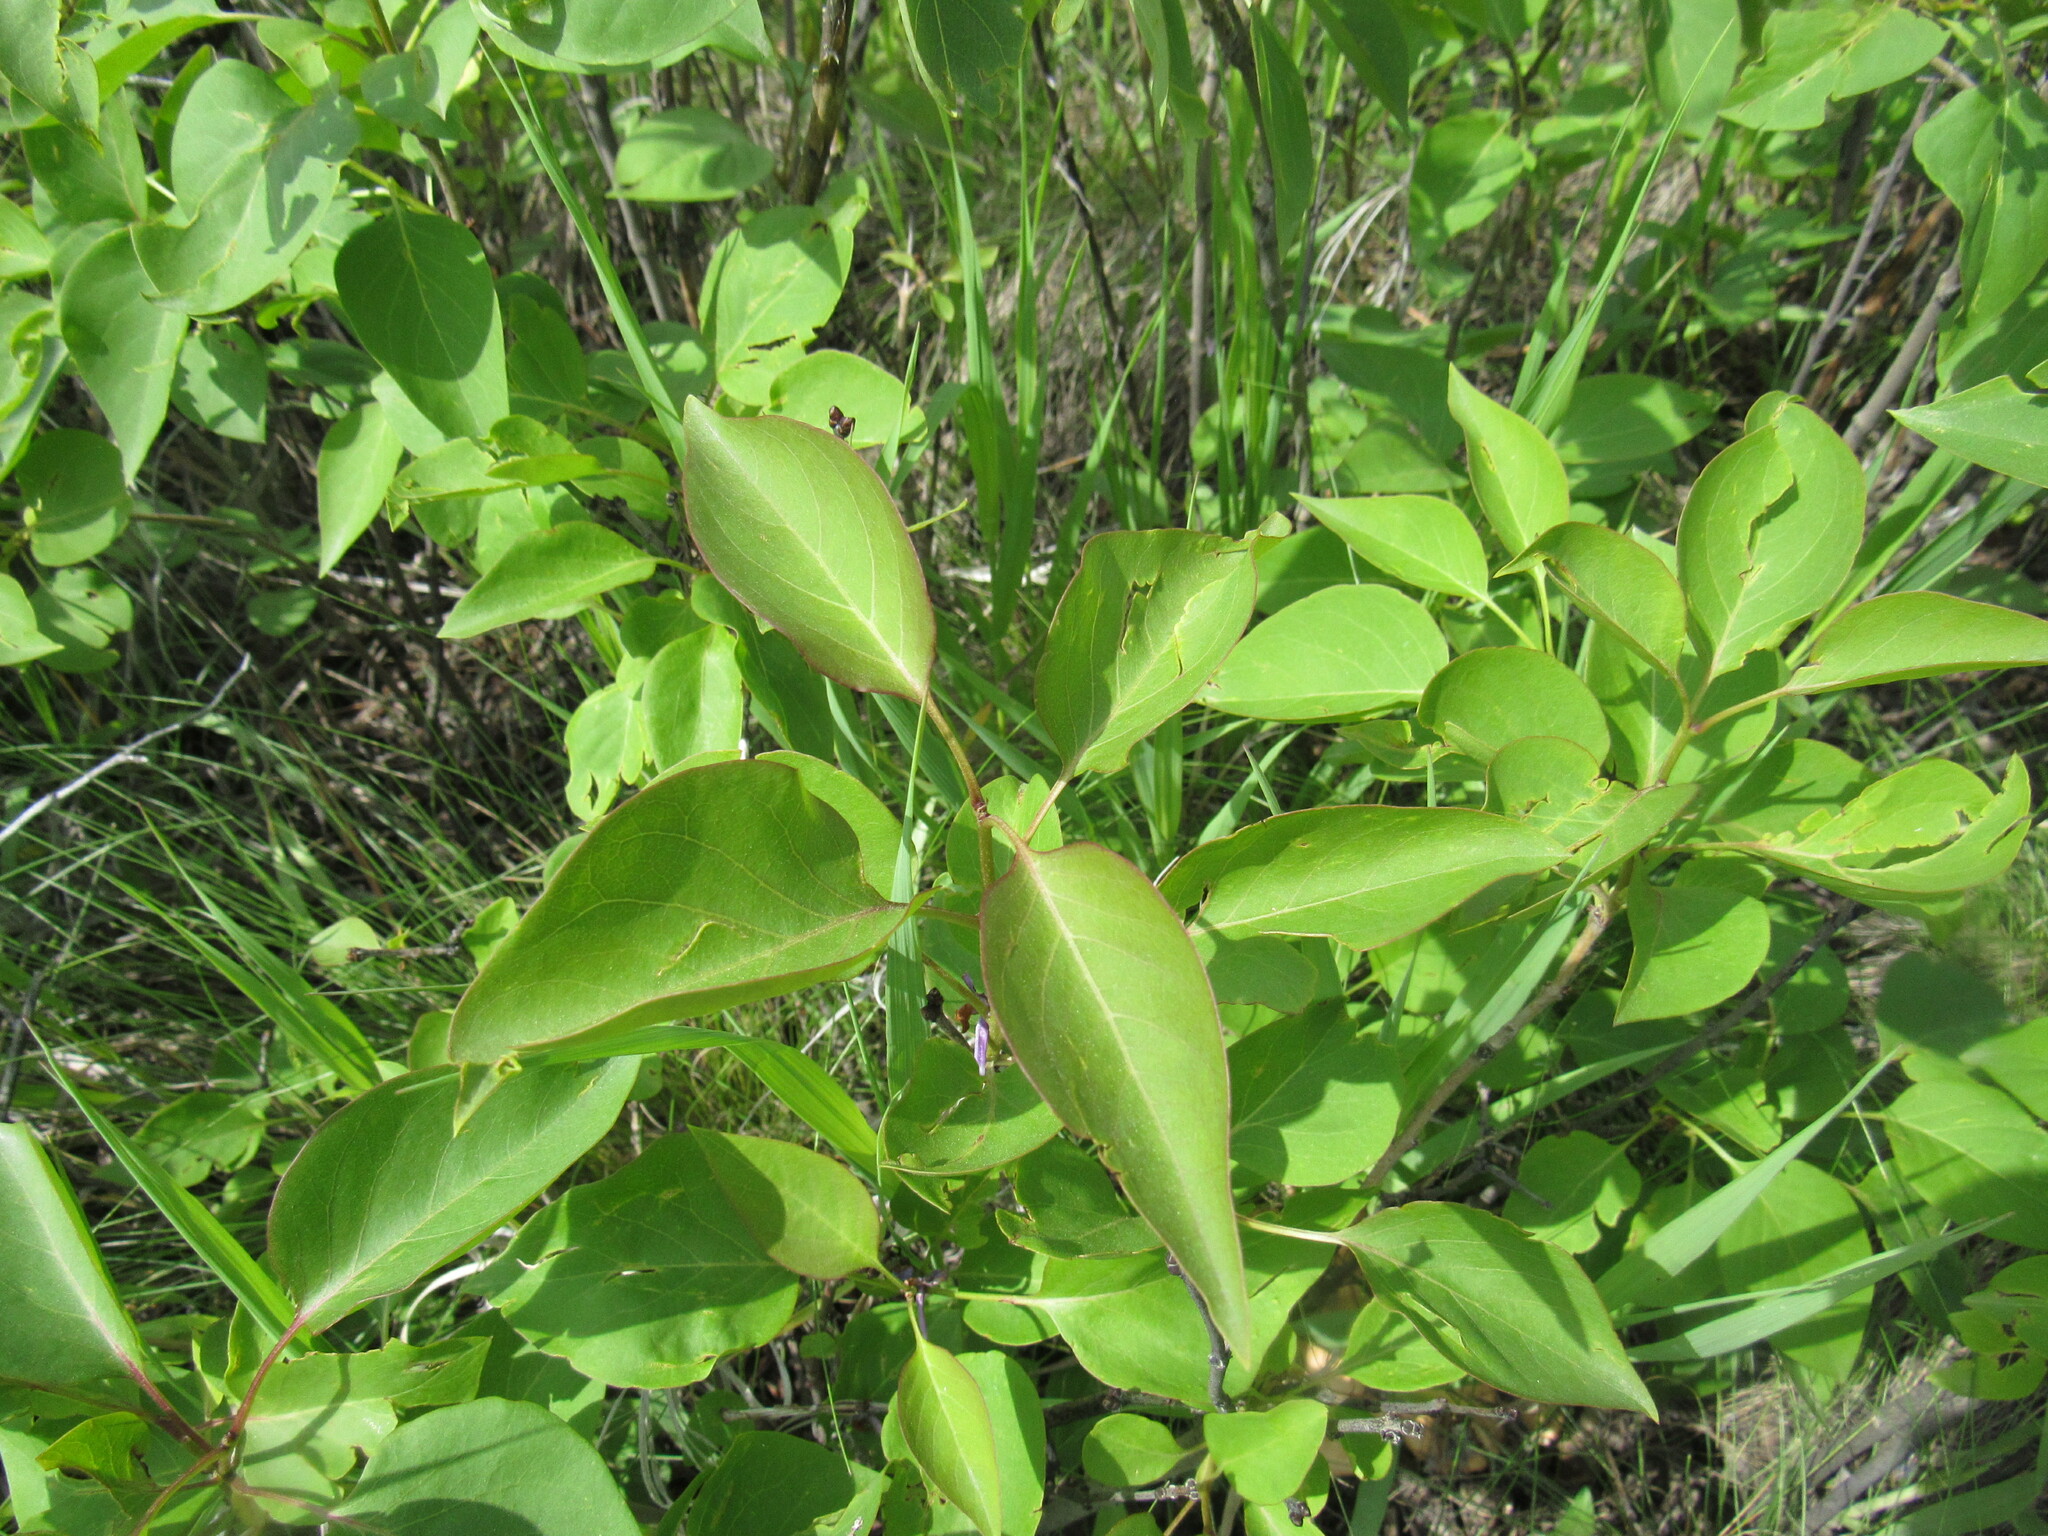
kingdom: Plantae
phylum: Tracheophyta
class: Magnoliopsida
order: Lamiales
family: Oleaceae
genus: Syringa
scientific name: Syringa vulgaris
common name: Common lilac
